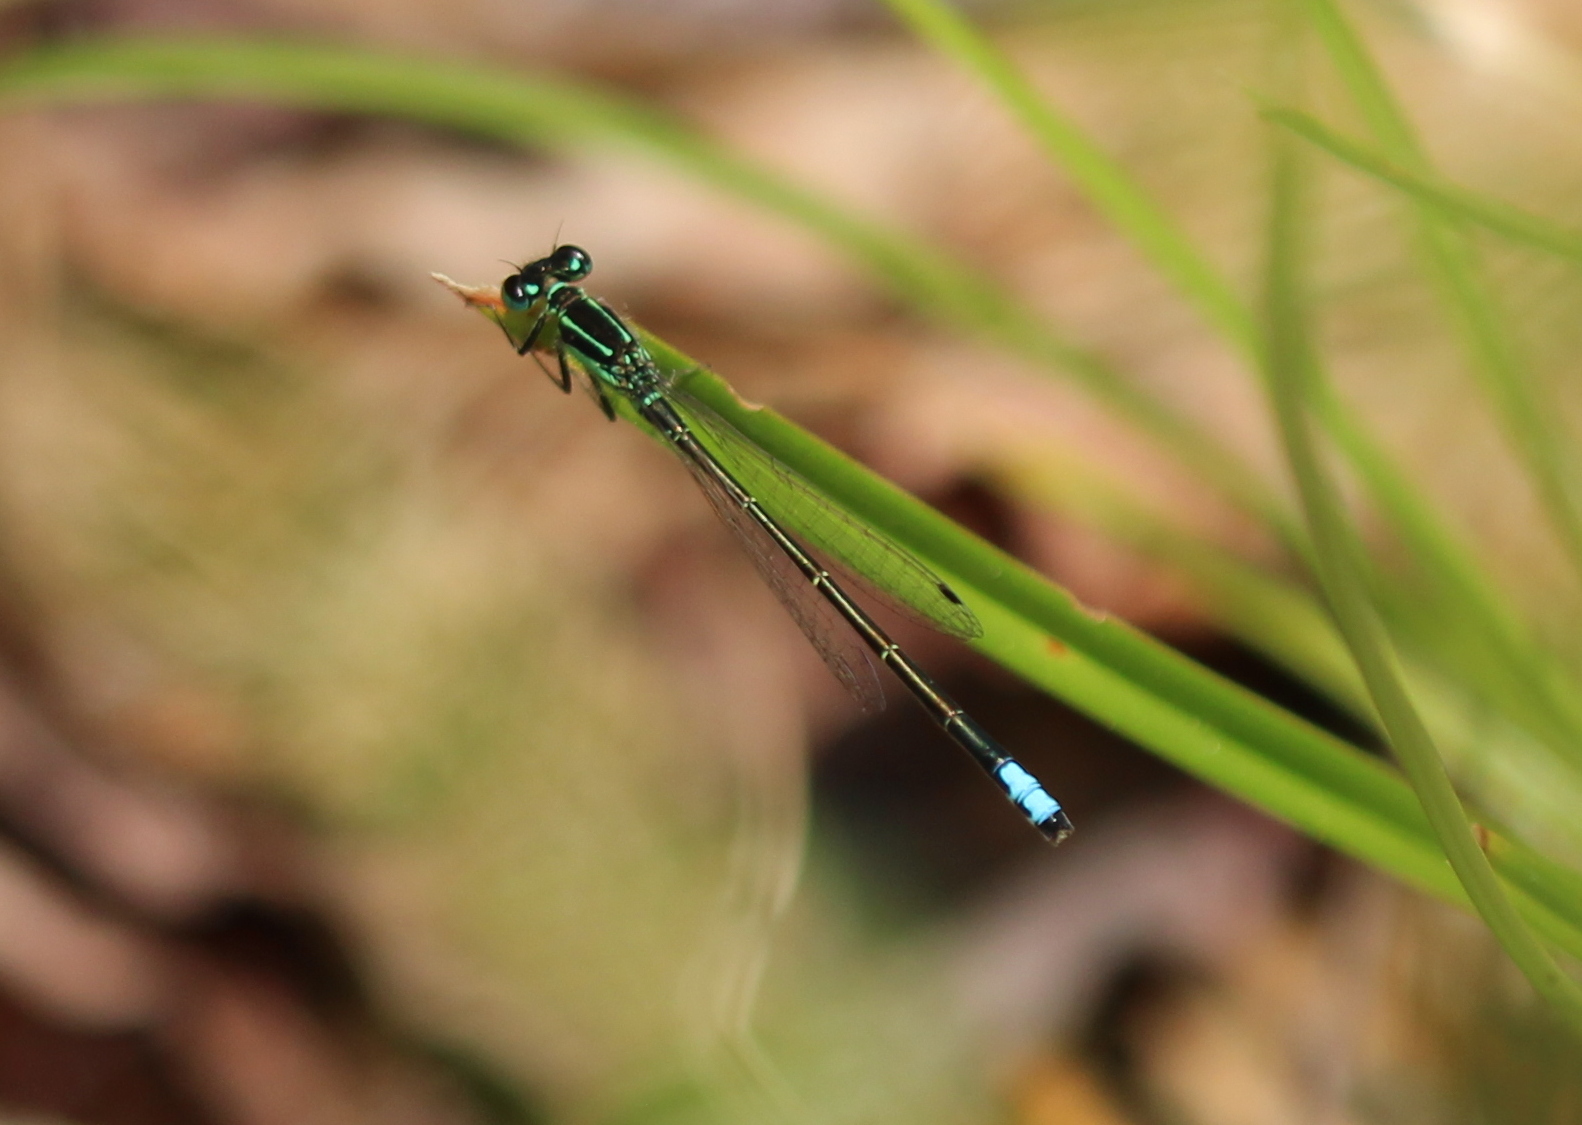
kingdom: Animalia
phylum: Arthropoda
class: Insecta
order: Odonata
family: Coenagrionidae
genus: Ischnura
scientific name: Ischnura verticalis
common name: Eastern forktail
